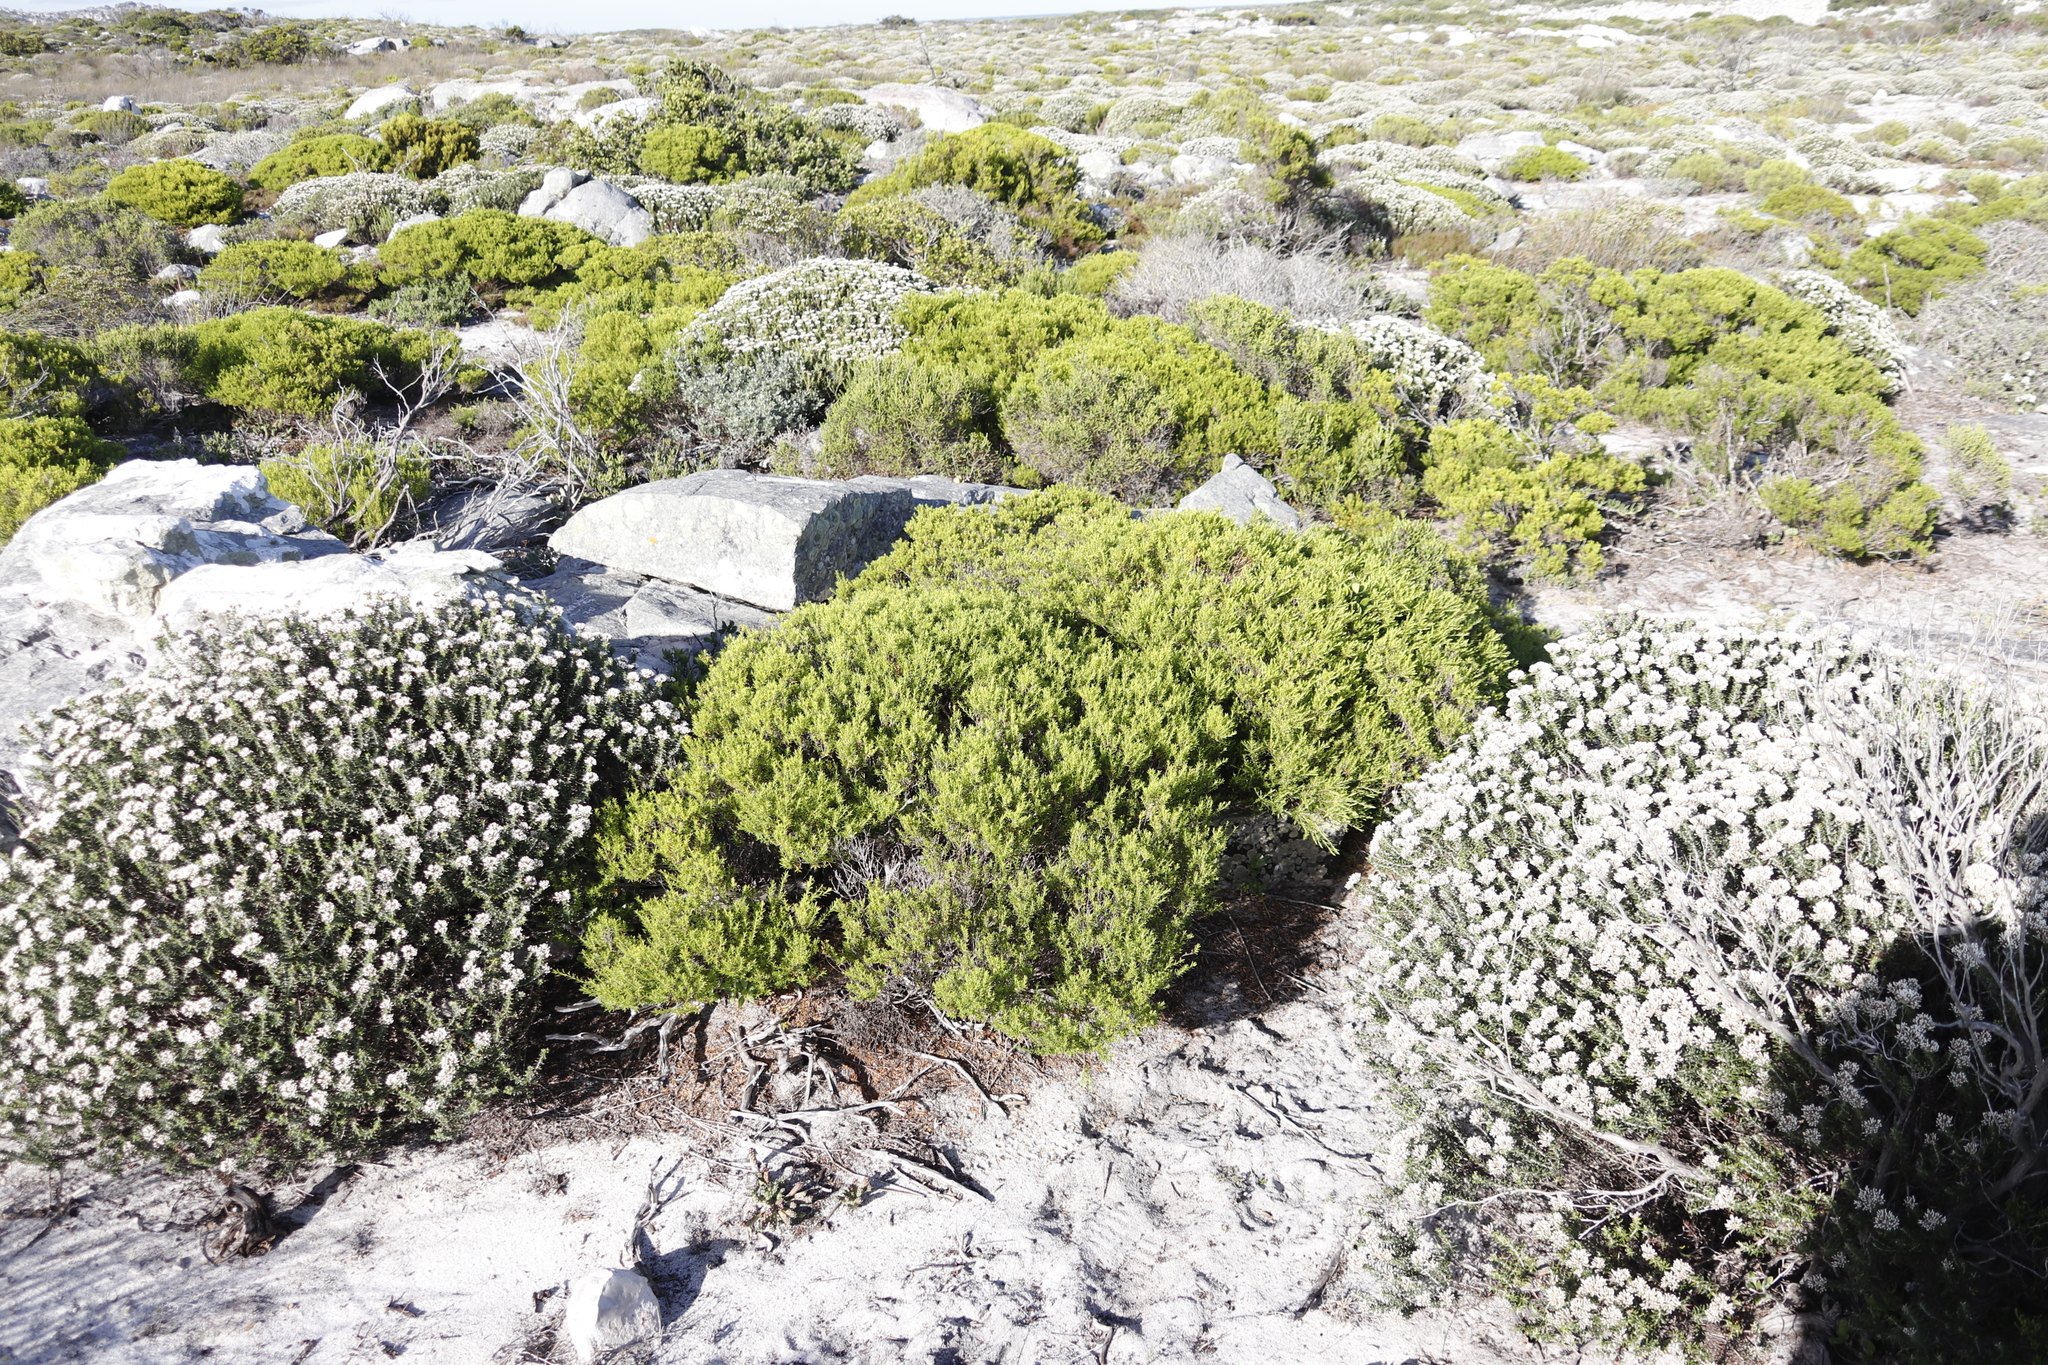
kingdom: Plantae
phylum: Tracheophyta
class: Magnoliopsida
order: Sapindales
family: Rutaceae
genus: Coleonema
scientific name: Coleonema album
